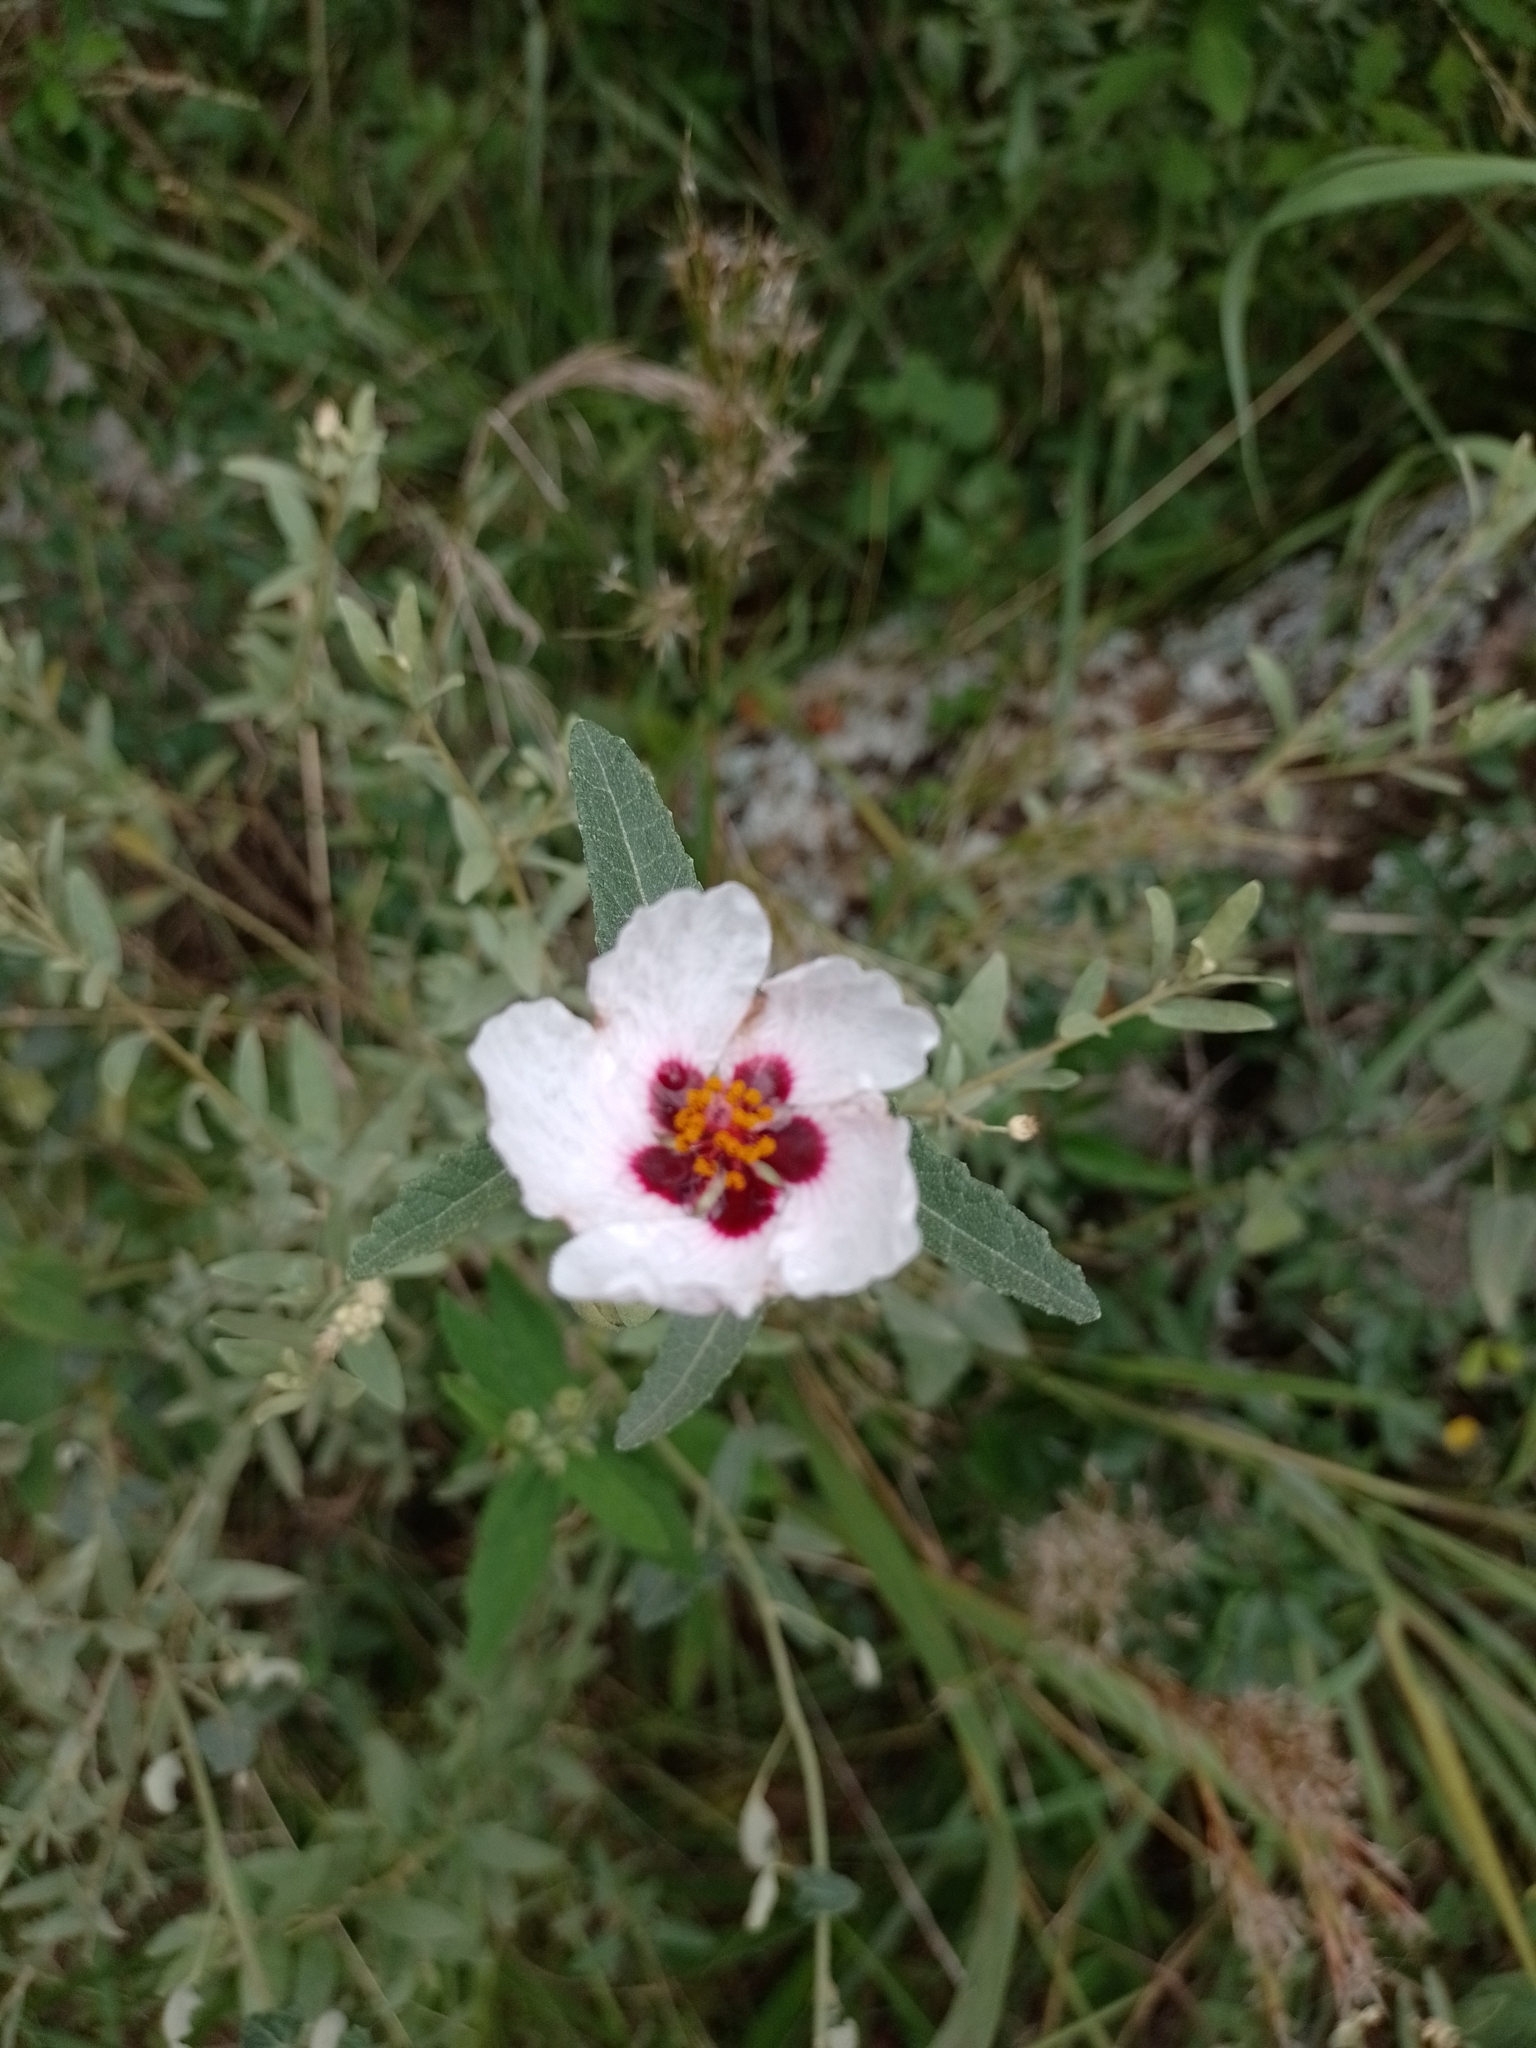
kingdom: Plantae
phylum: Tracheophyta
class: Magnoliopsida
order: Malvales
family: Malvaceae
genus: Pavonia
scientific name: Pavonia aurigloba
